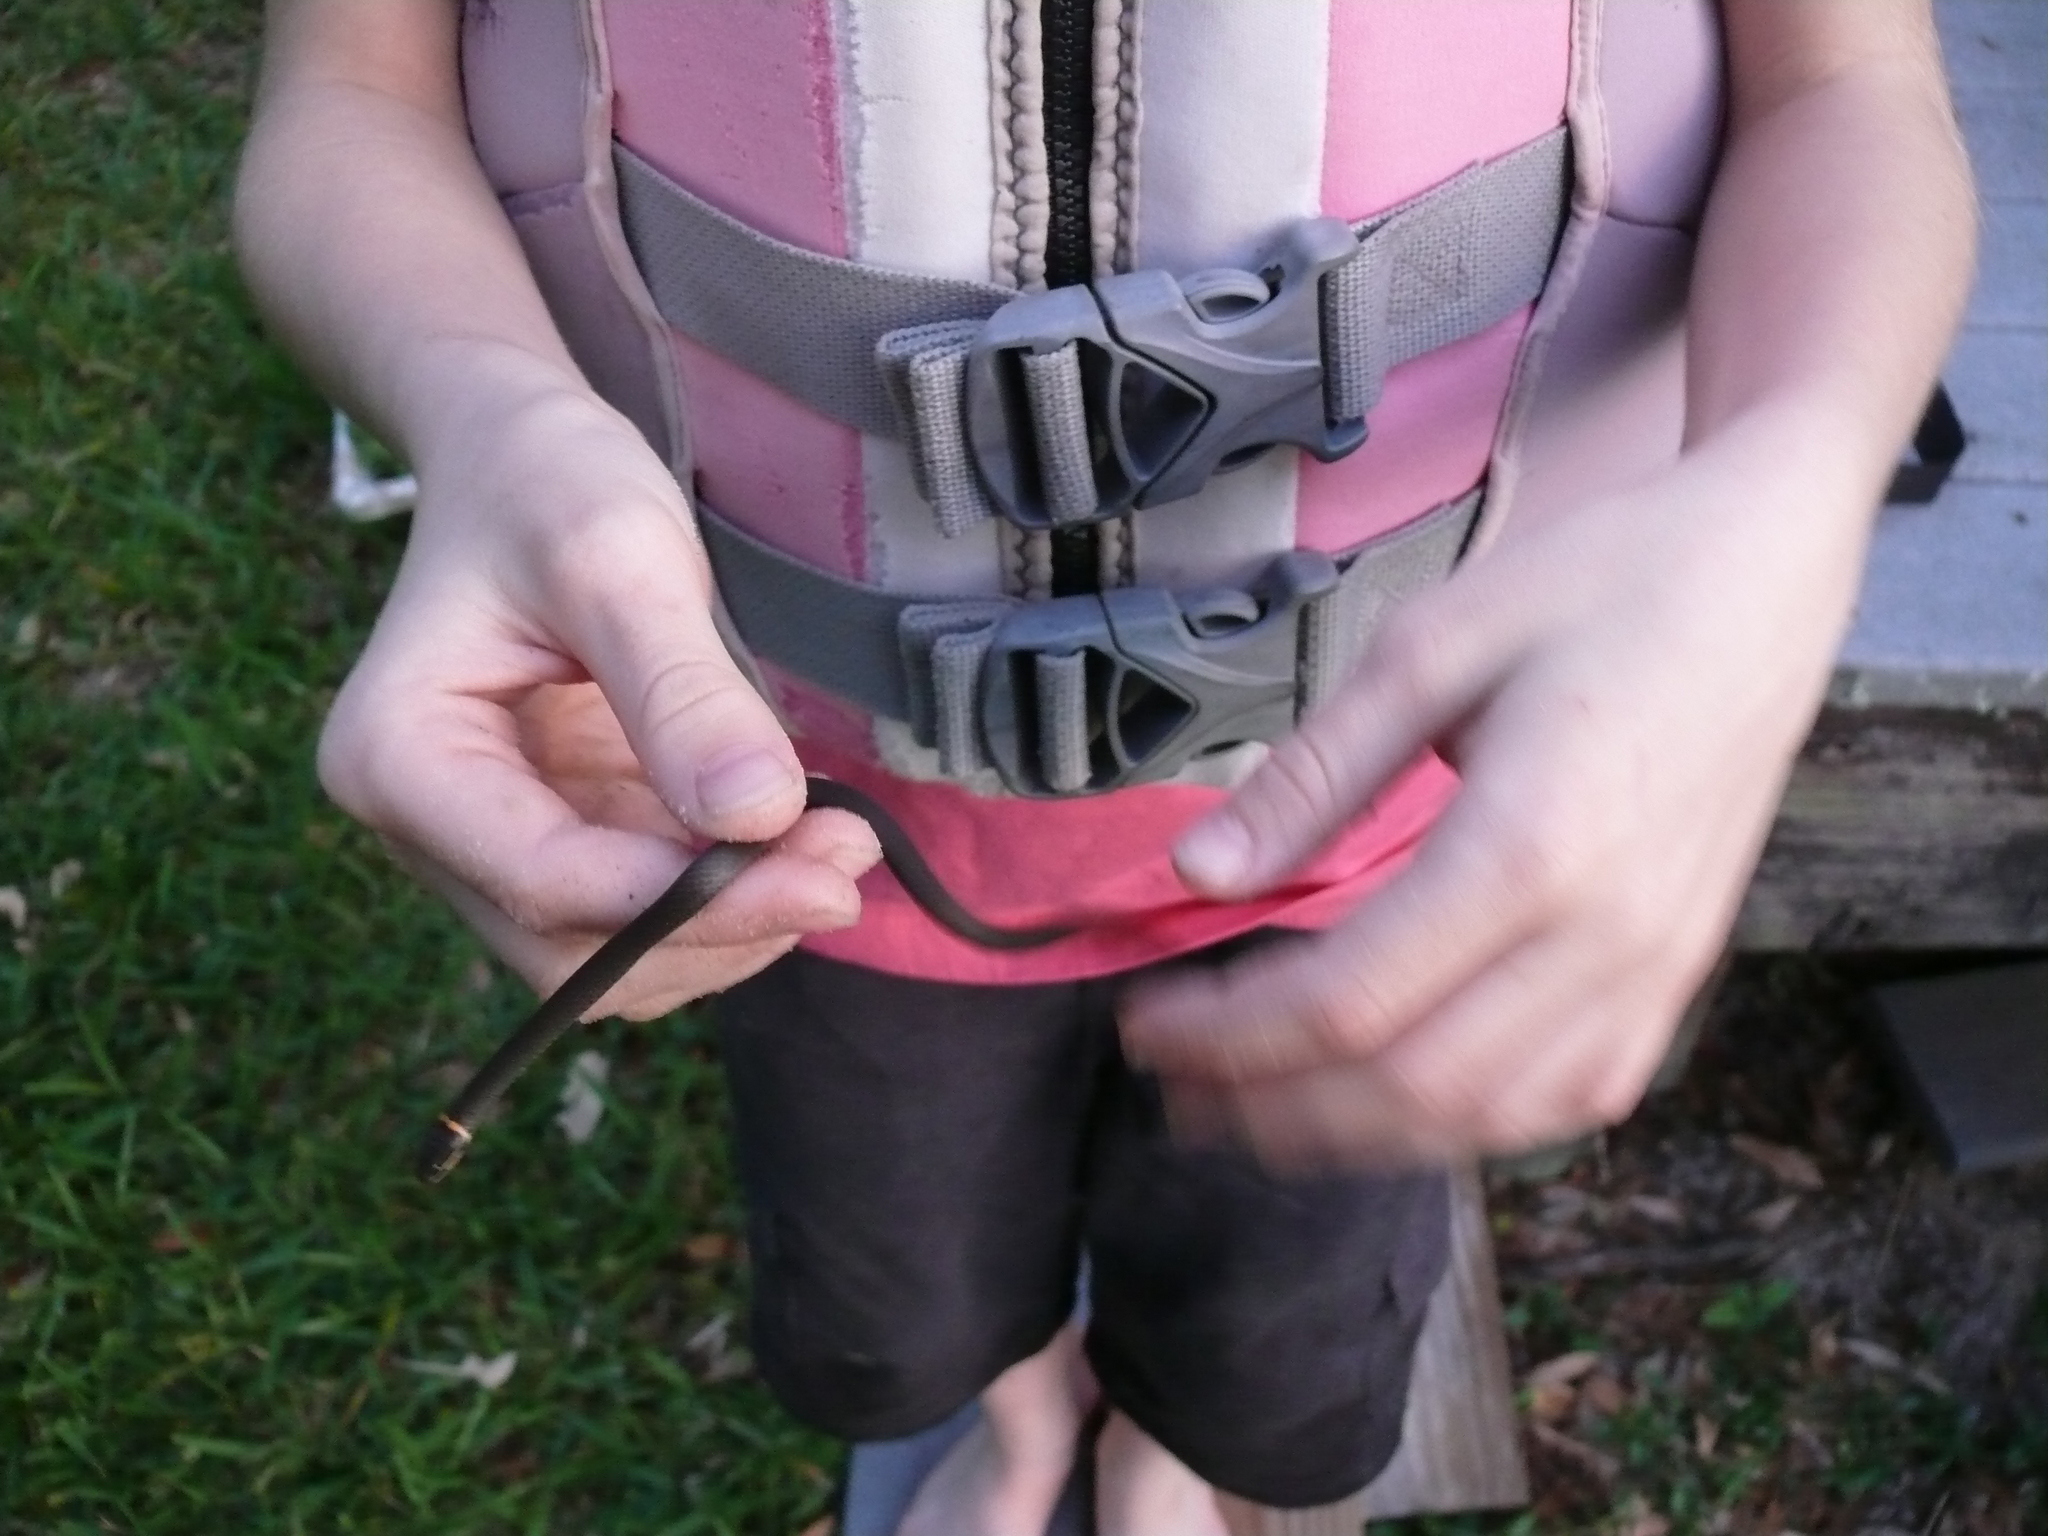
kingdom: Animalia
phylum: Chordata
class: Squamata
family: Colubridae
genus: Diadophis
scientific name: Diadophis punctatus
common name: Ringneck snake
